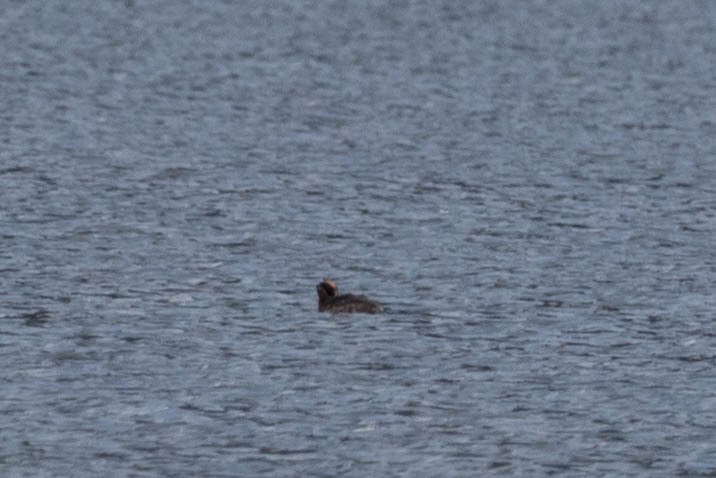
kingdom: Animalia
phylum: Chordata
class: Aves
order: Podicipediformes
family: Podicipedidae
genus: Podiceps
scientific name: Podiceps auritus
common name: Horned grebe
